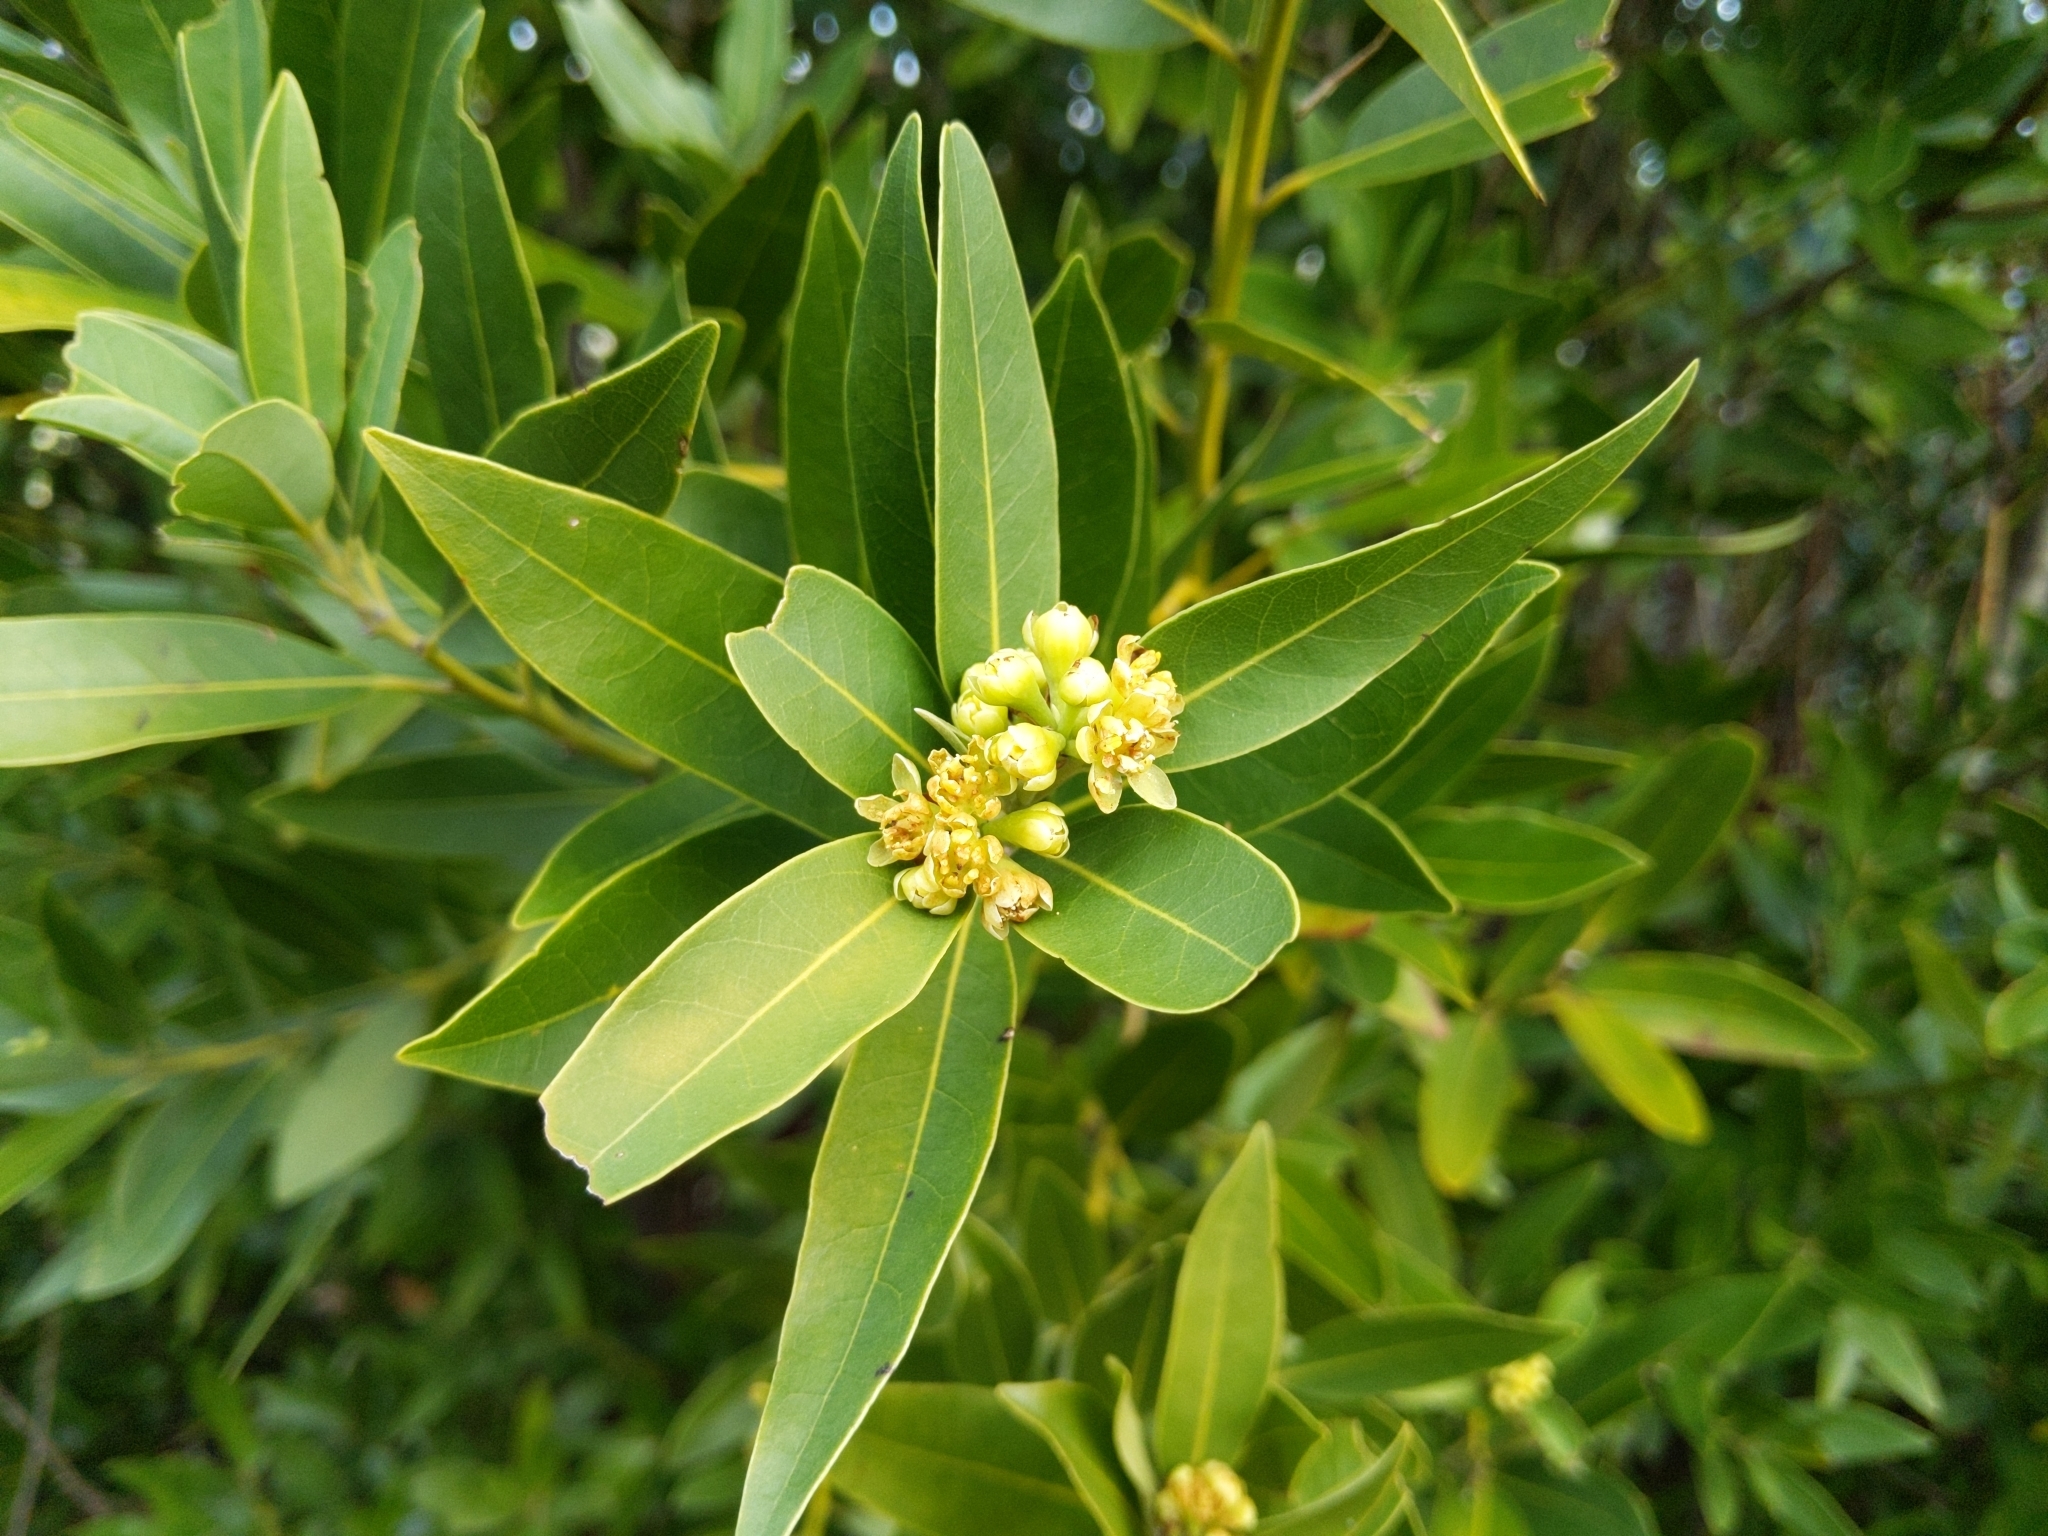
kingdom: Plantae
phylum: Tracheophyta
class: Magnoliopsida
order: Laurales
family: Lauraceae
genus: Umbellularia
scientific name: Umbellularia californica
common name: California bay
